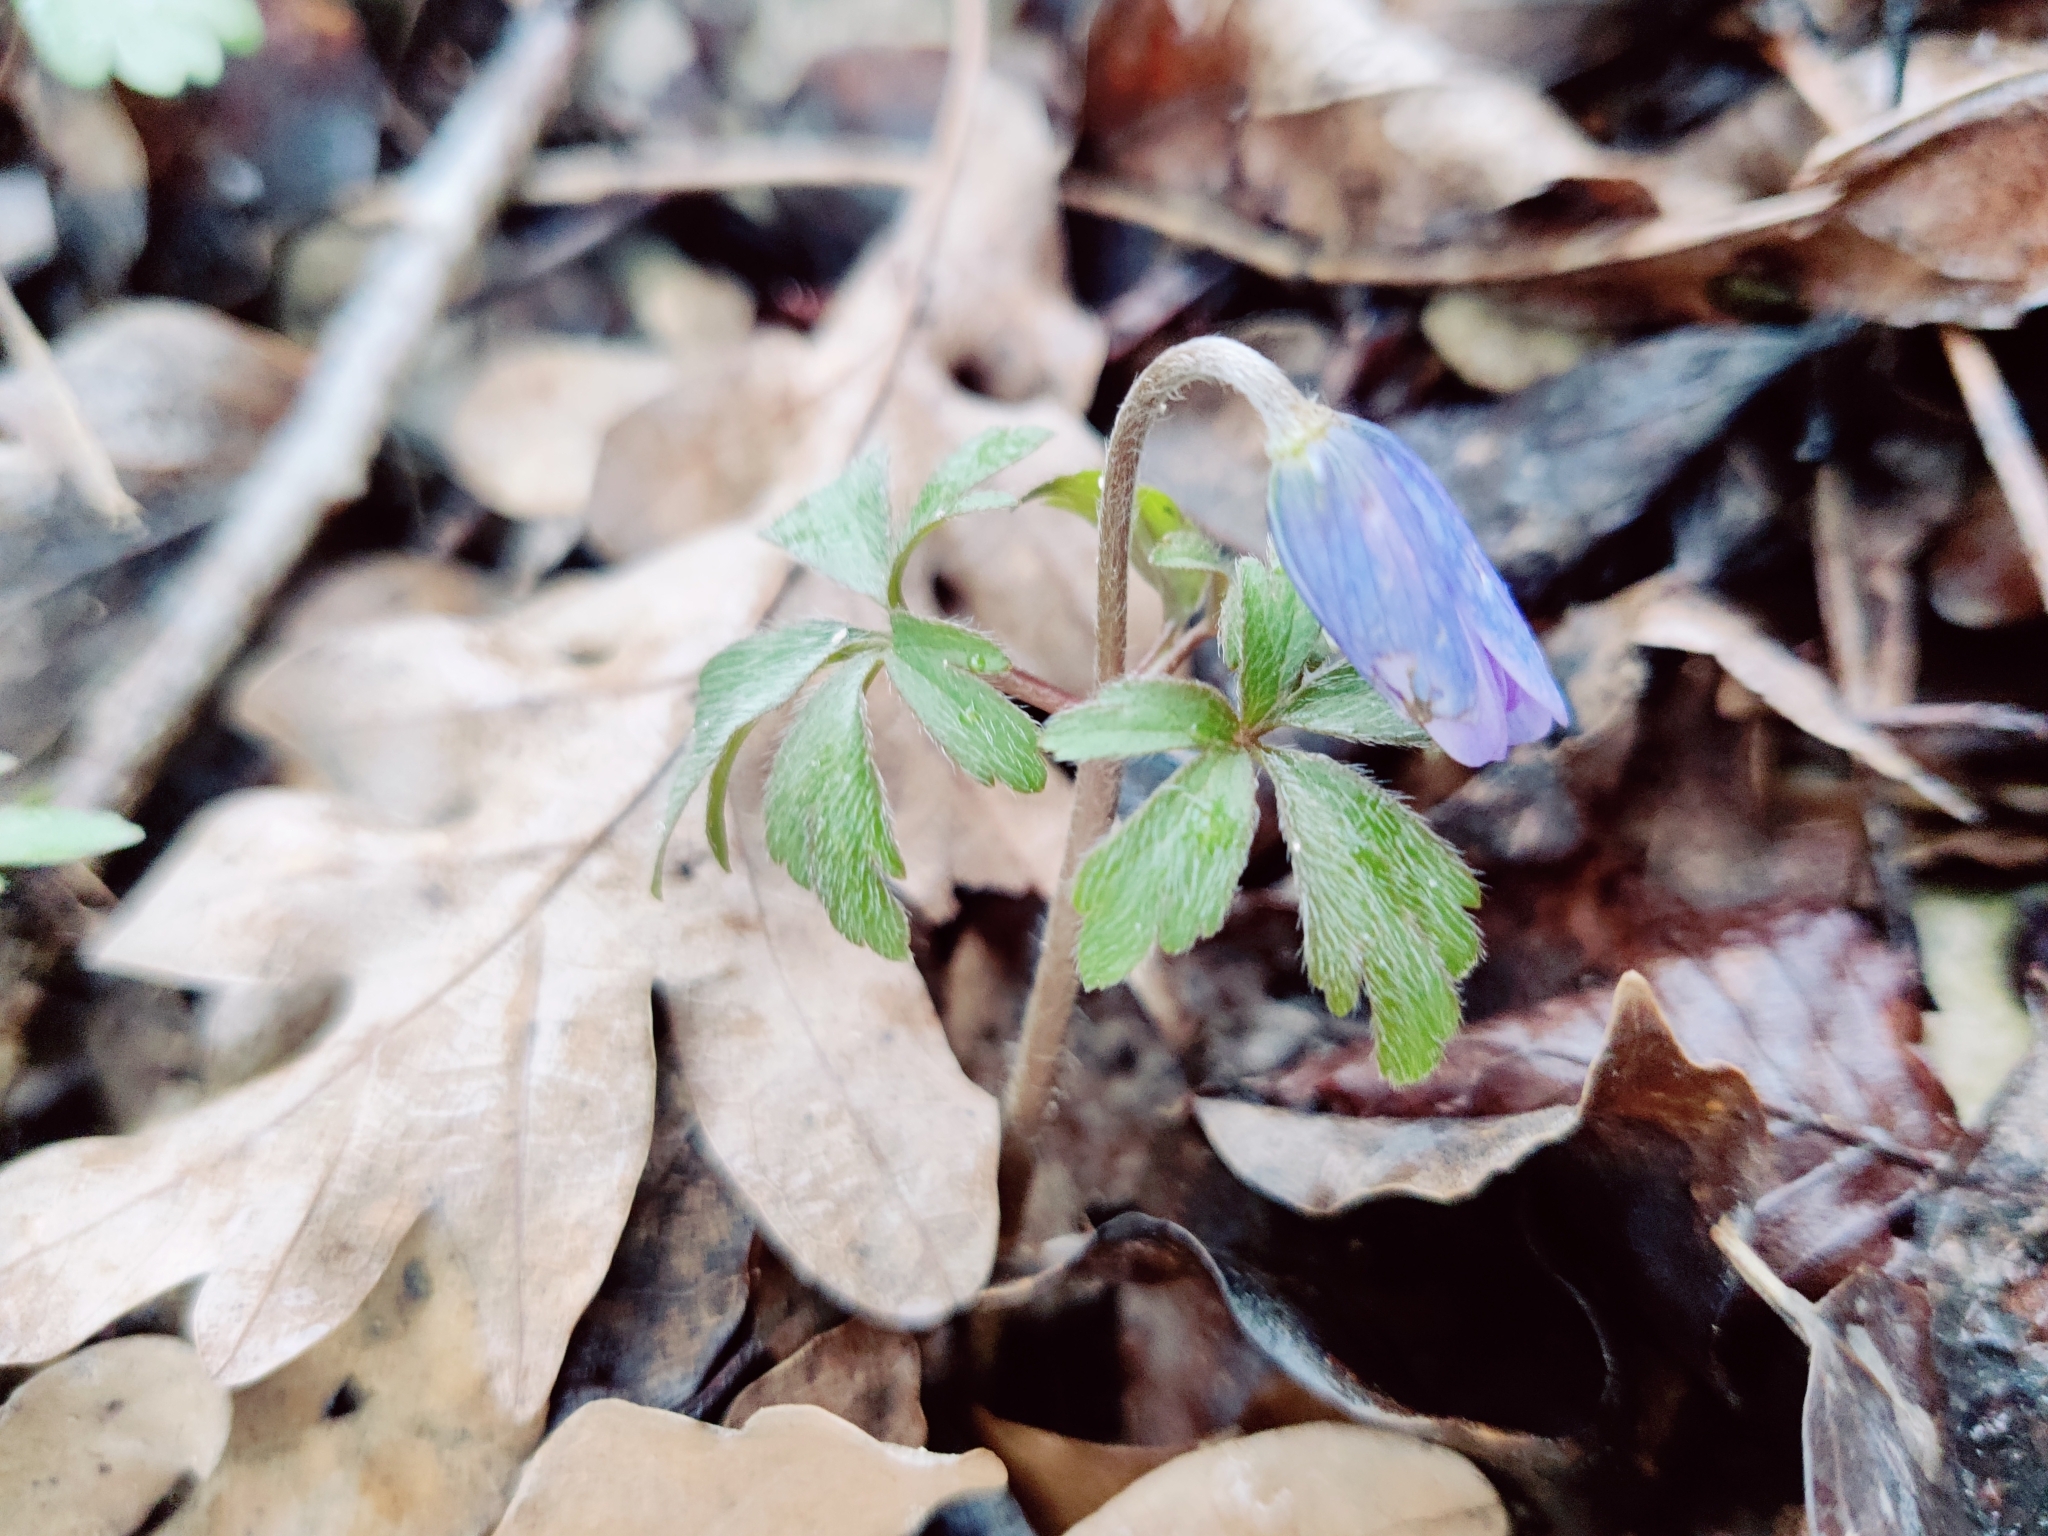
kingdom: Plantae
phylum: Tracheophyta
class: Magnoliopsida
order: Ranunculales
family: Ranunculaceae
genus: Anemone
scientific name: Anemone blanda
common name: Balkan anemone
